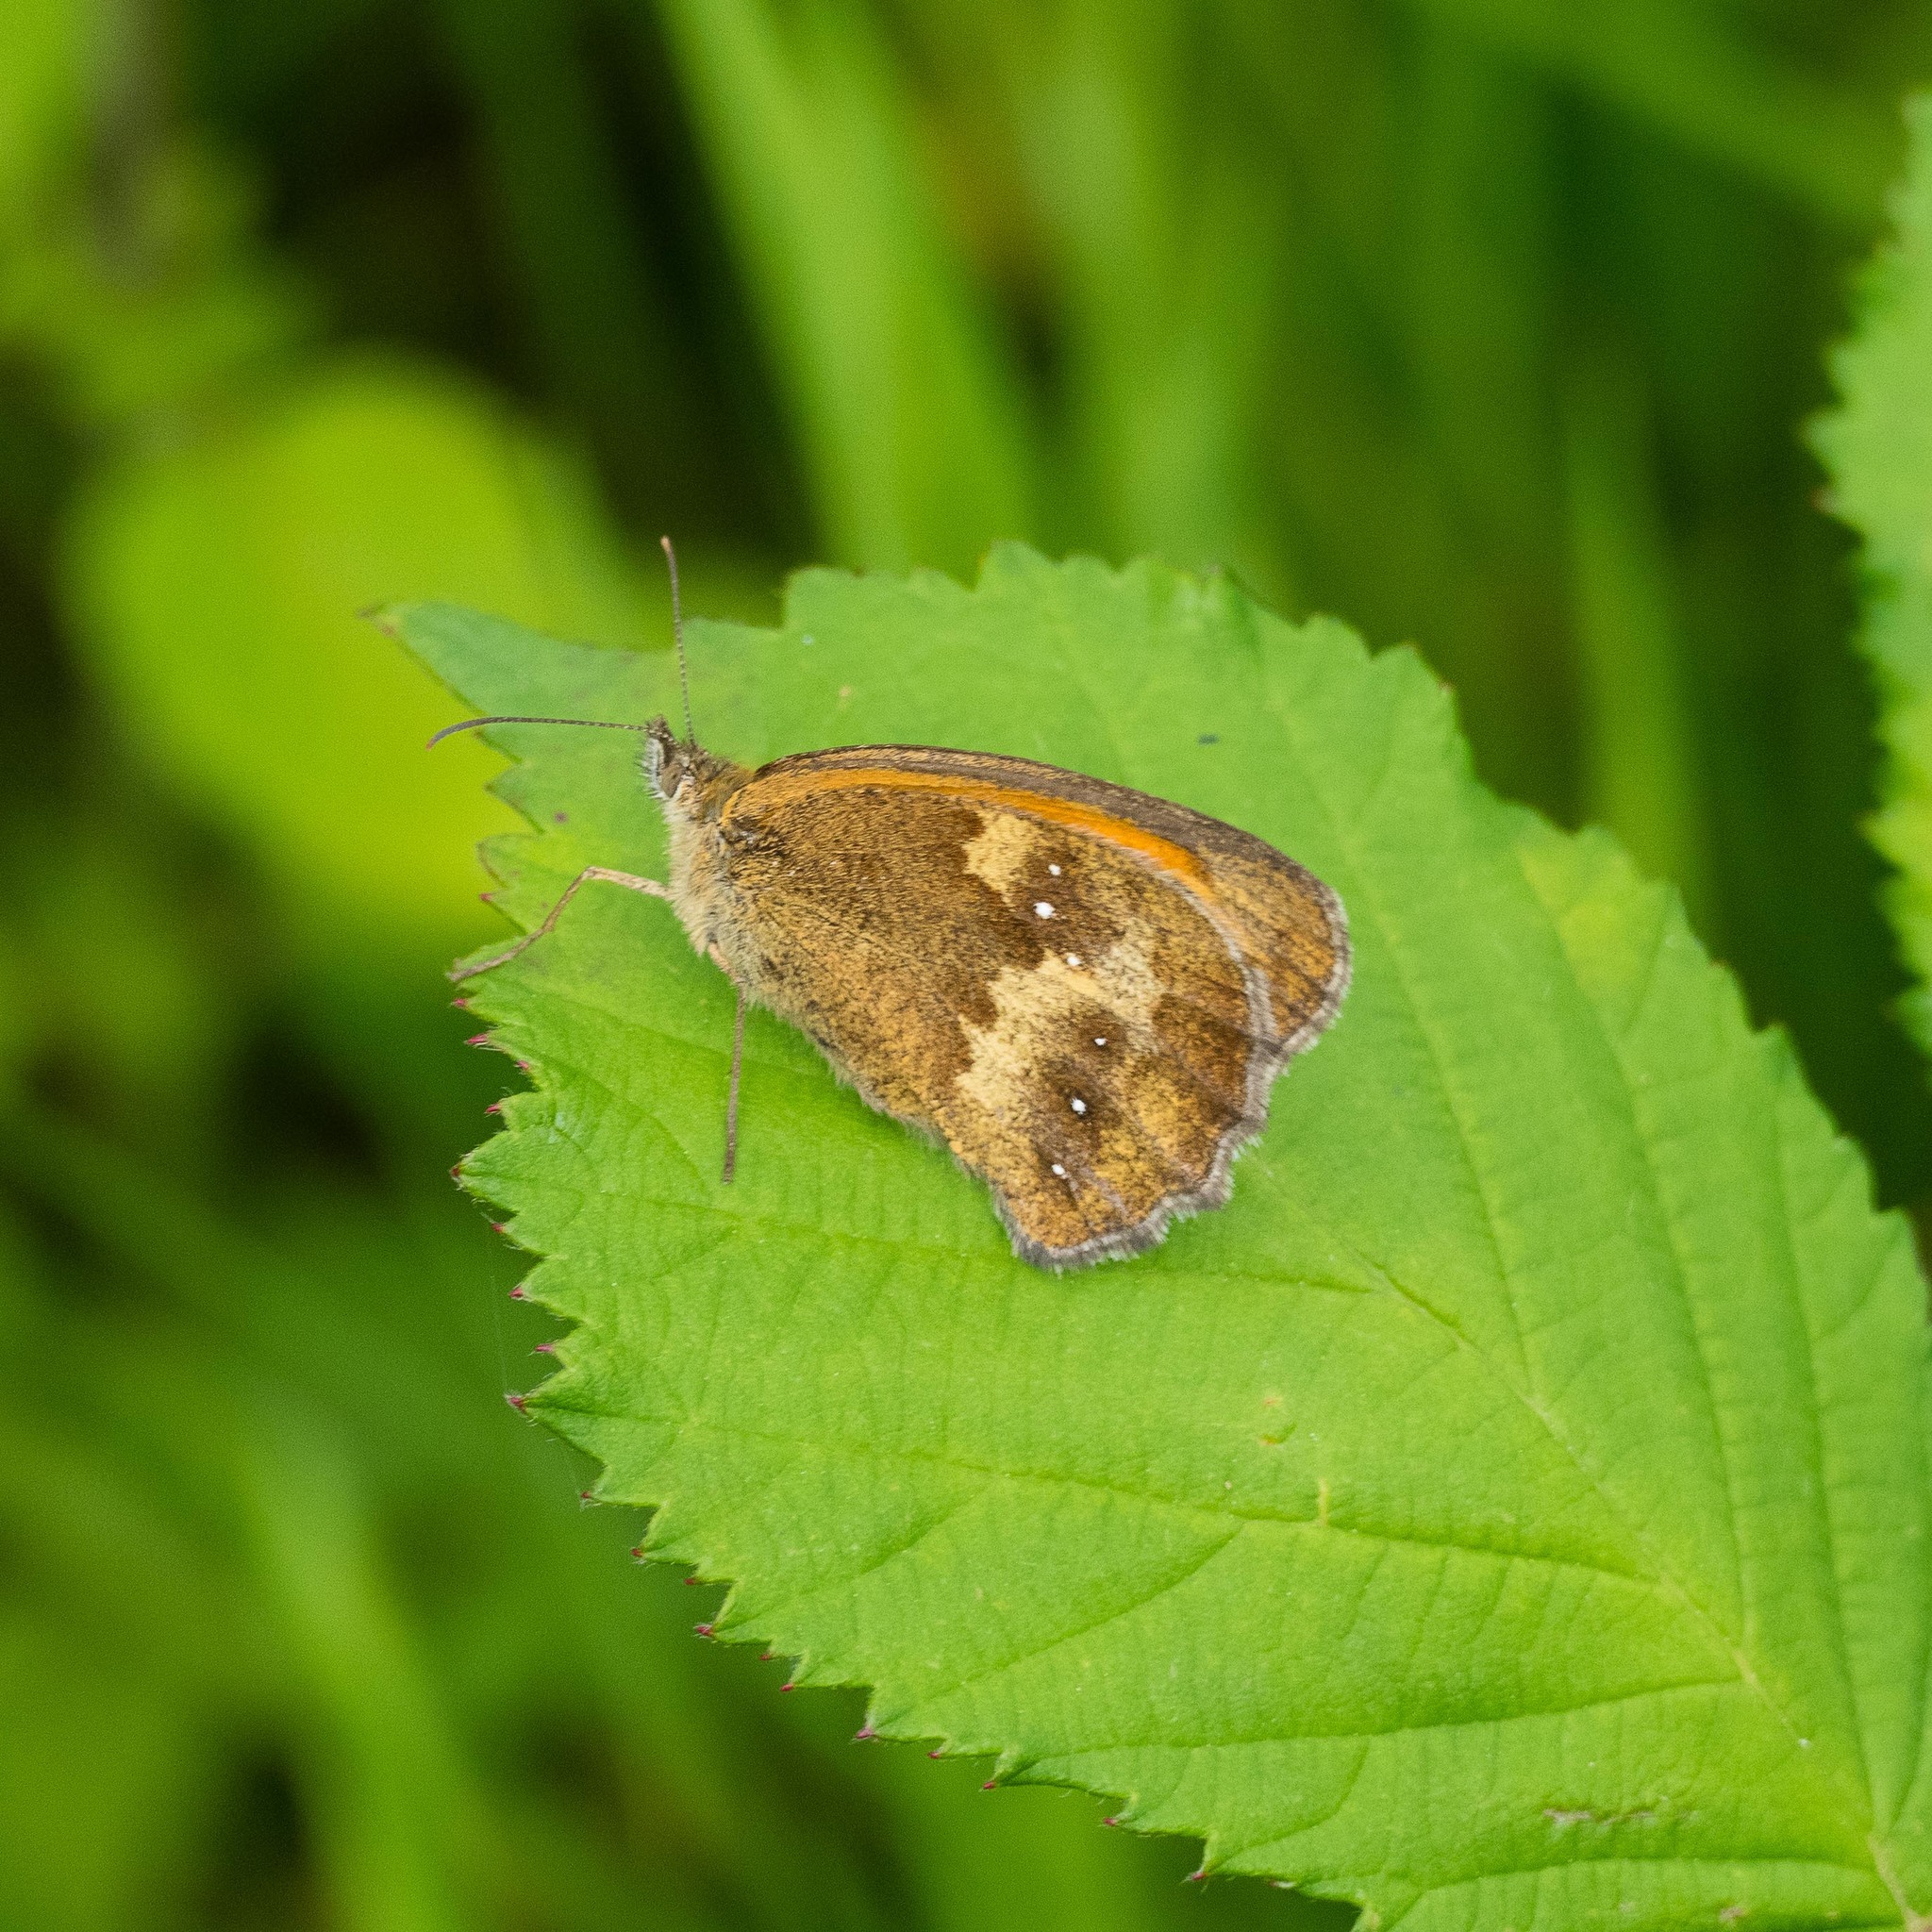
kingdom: Animalia
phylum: Arthropoda
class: Insecta
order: Lepidoptera
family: Nymphalidae
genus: Pyronia
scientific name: Pyronia tithonus
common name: Gatekeeper
